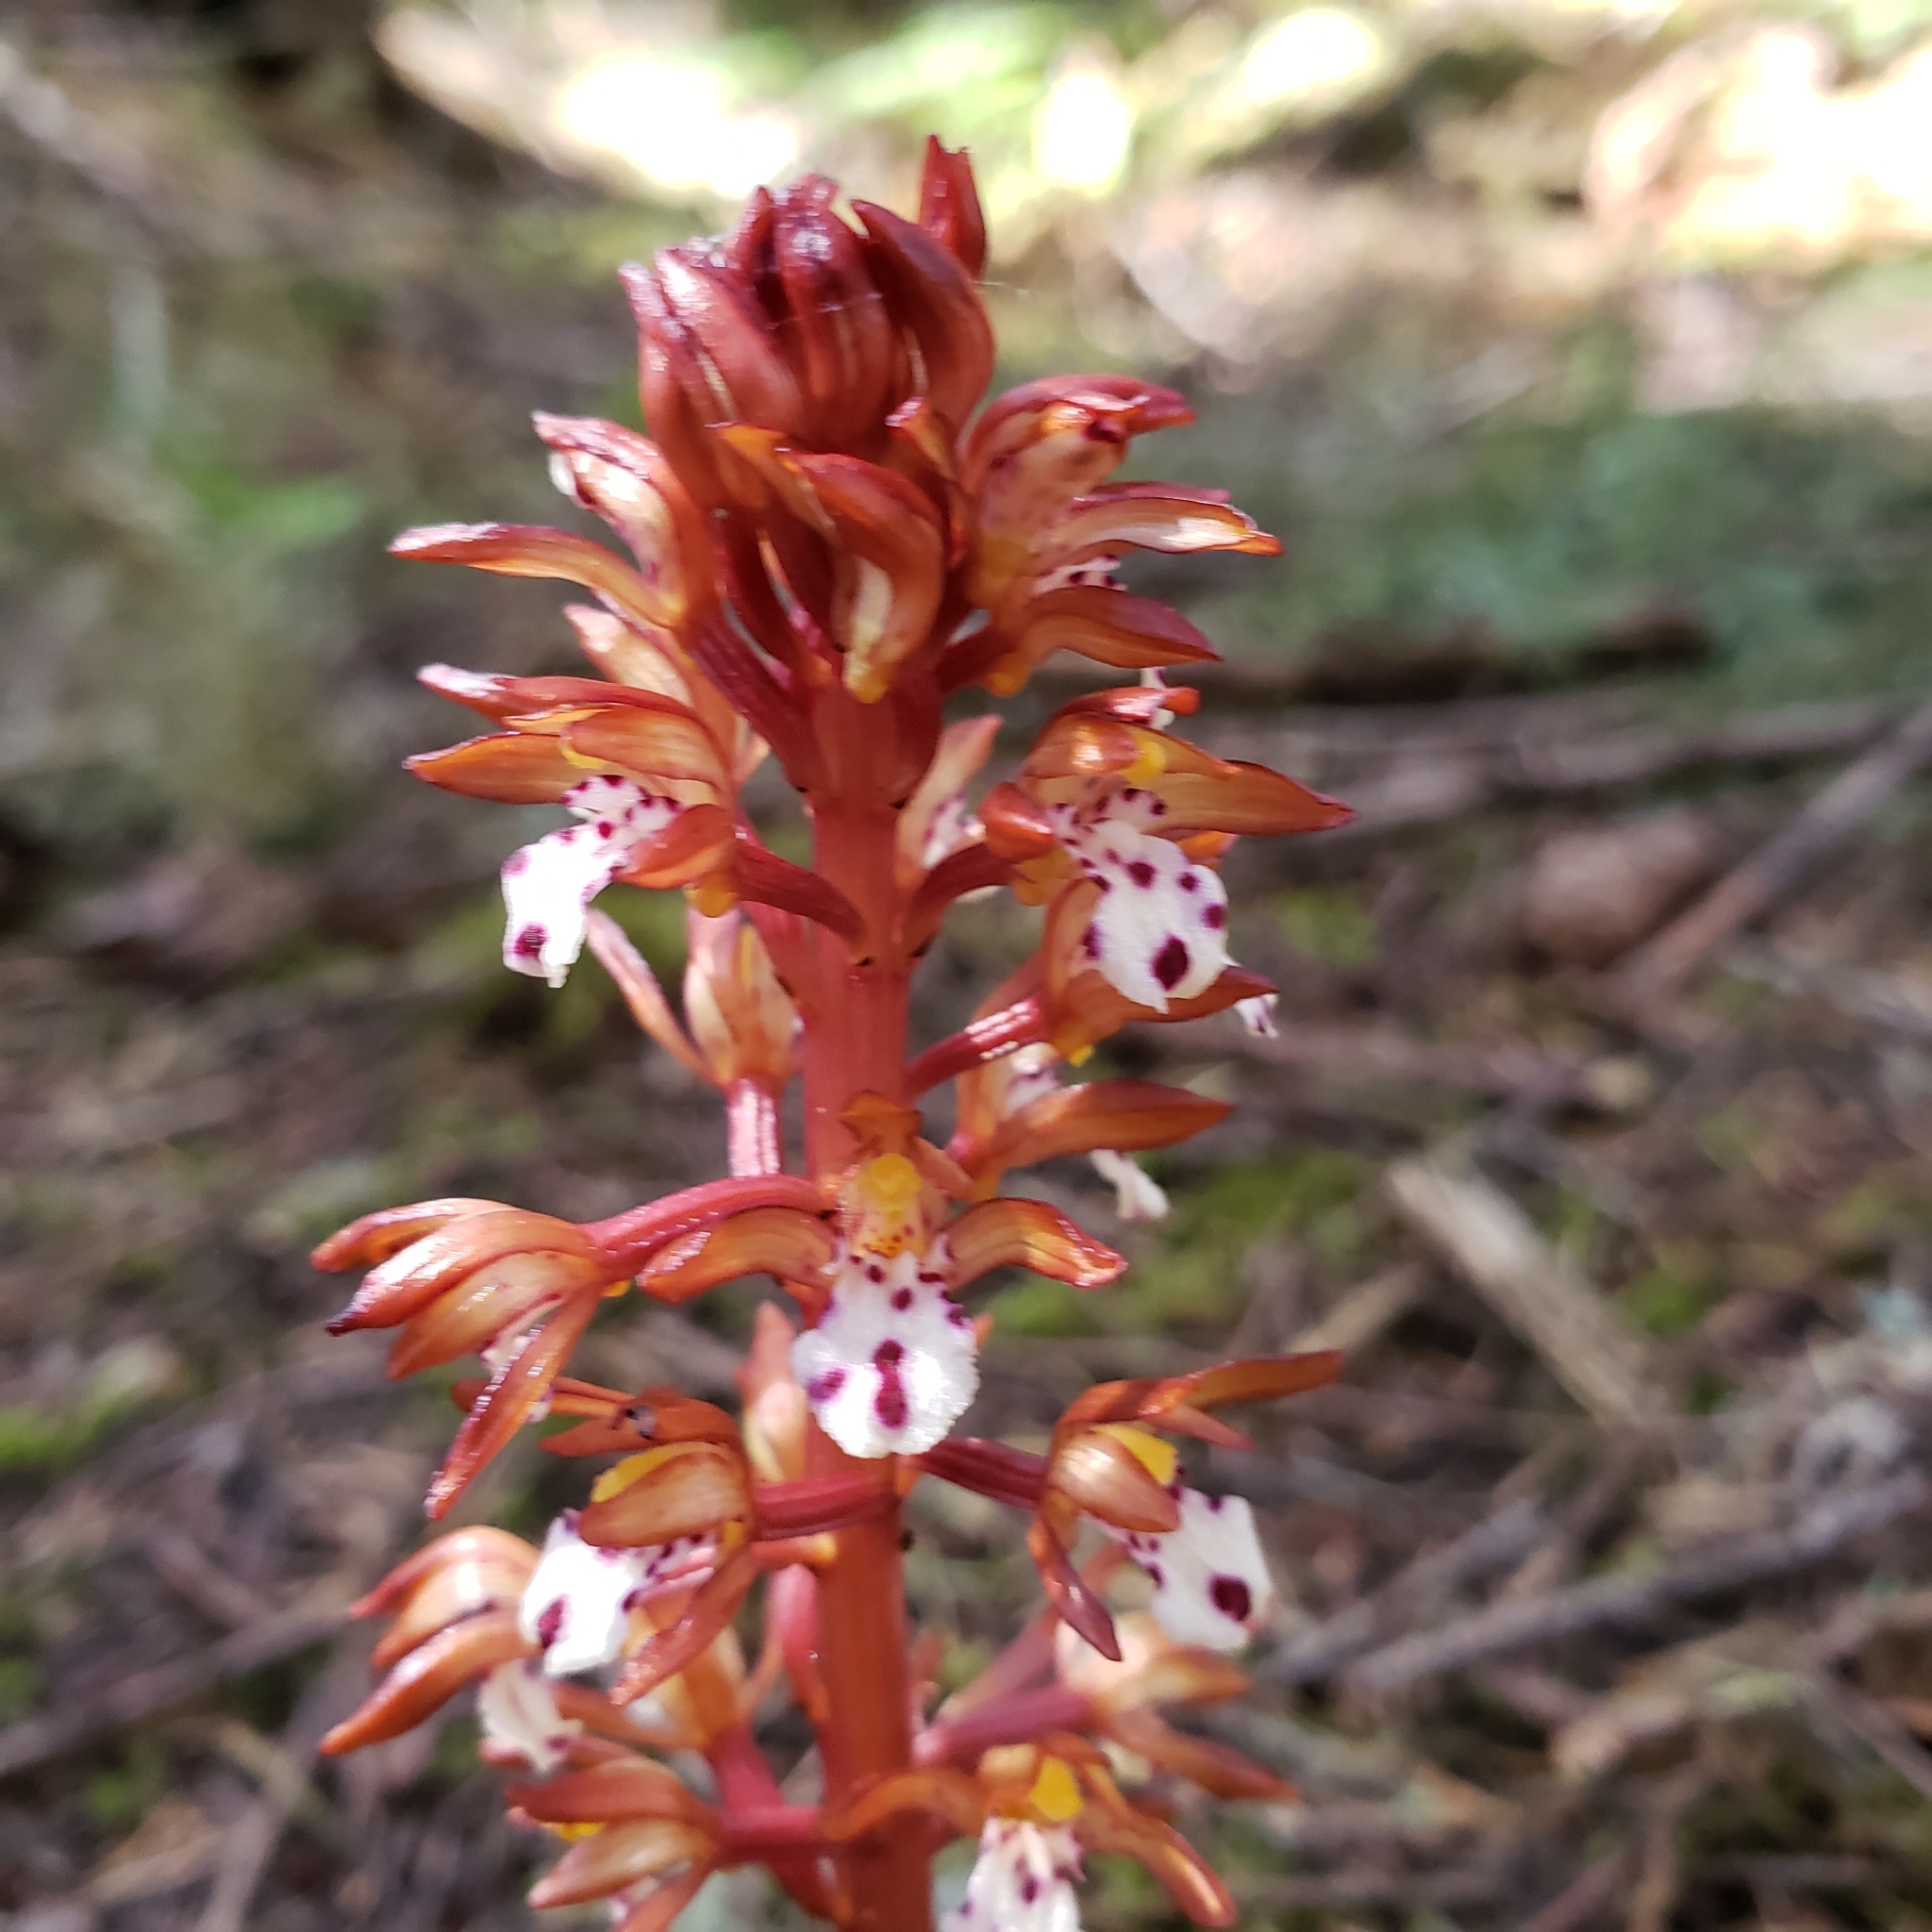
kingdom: Plantae
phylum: Tracheophyta
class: Liliopsida
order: Asparagales
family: Orchidaceae
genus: Corallorhiza
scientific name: Corallorhiza maculata
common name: Spotted coralroot
